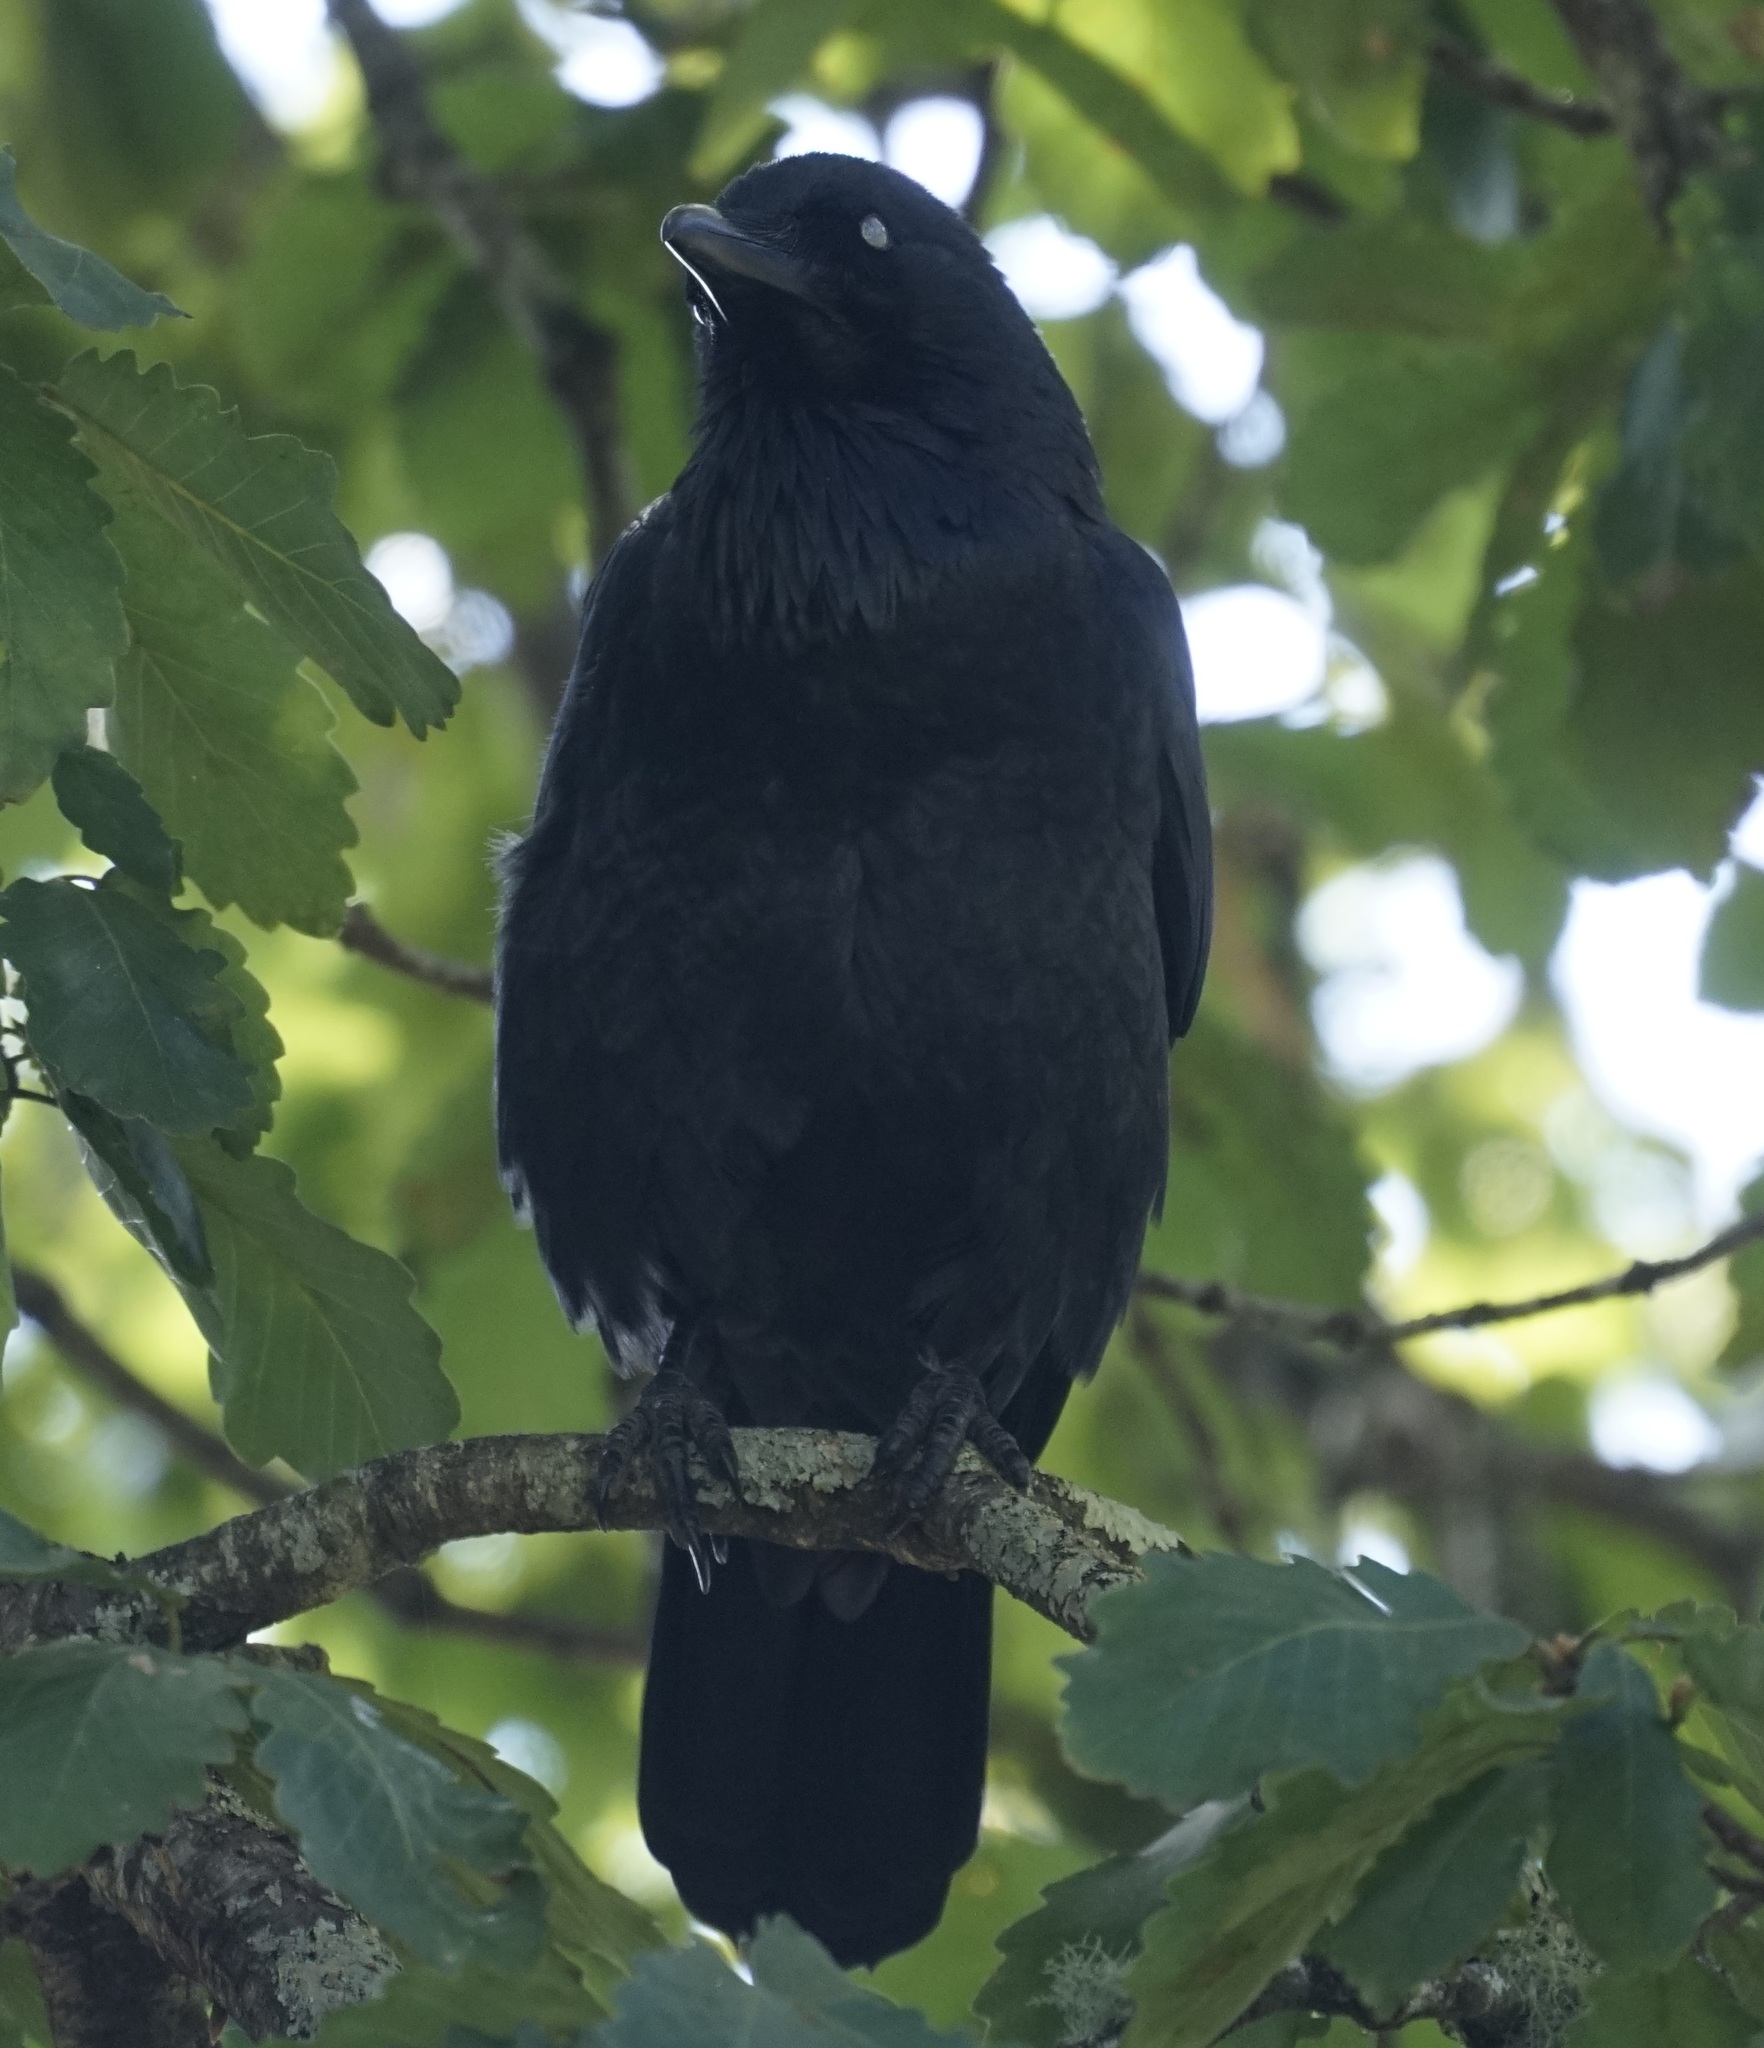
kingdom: Animalia
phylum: Chordata
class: Aves
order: Passeriformes
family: Corvidae
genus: Corvus
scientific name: Corvus mellori
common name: Little raven
